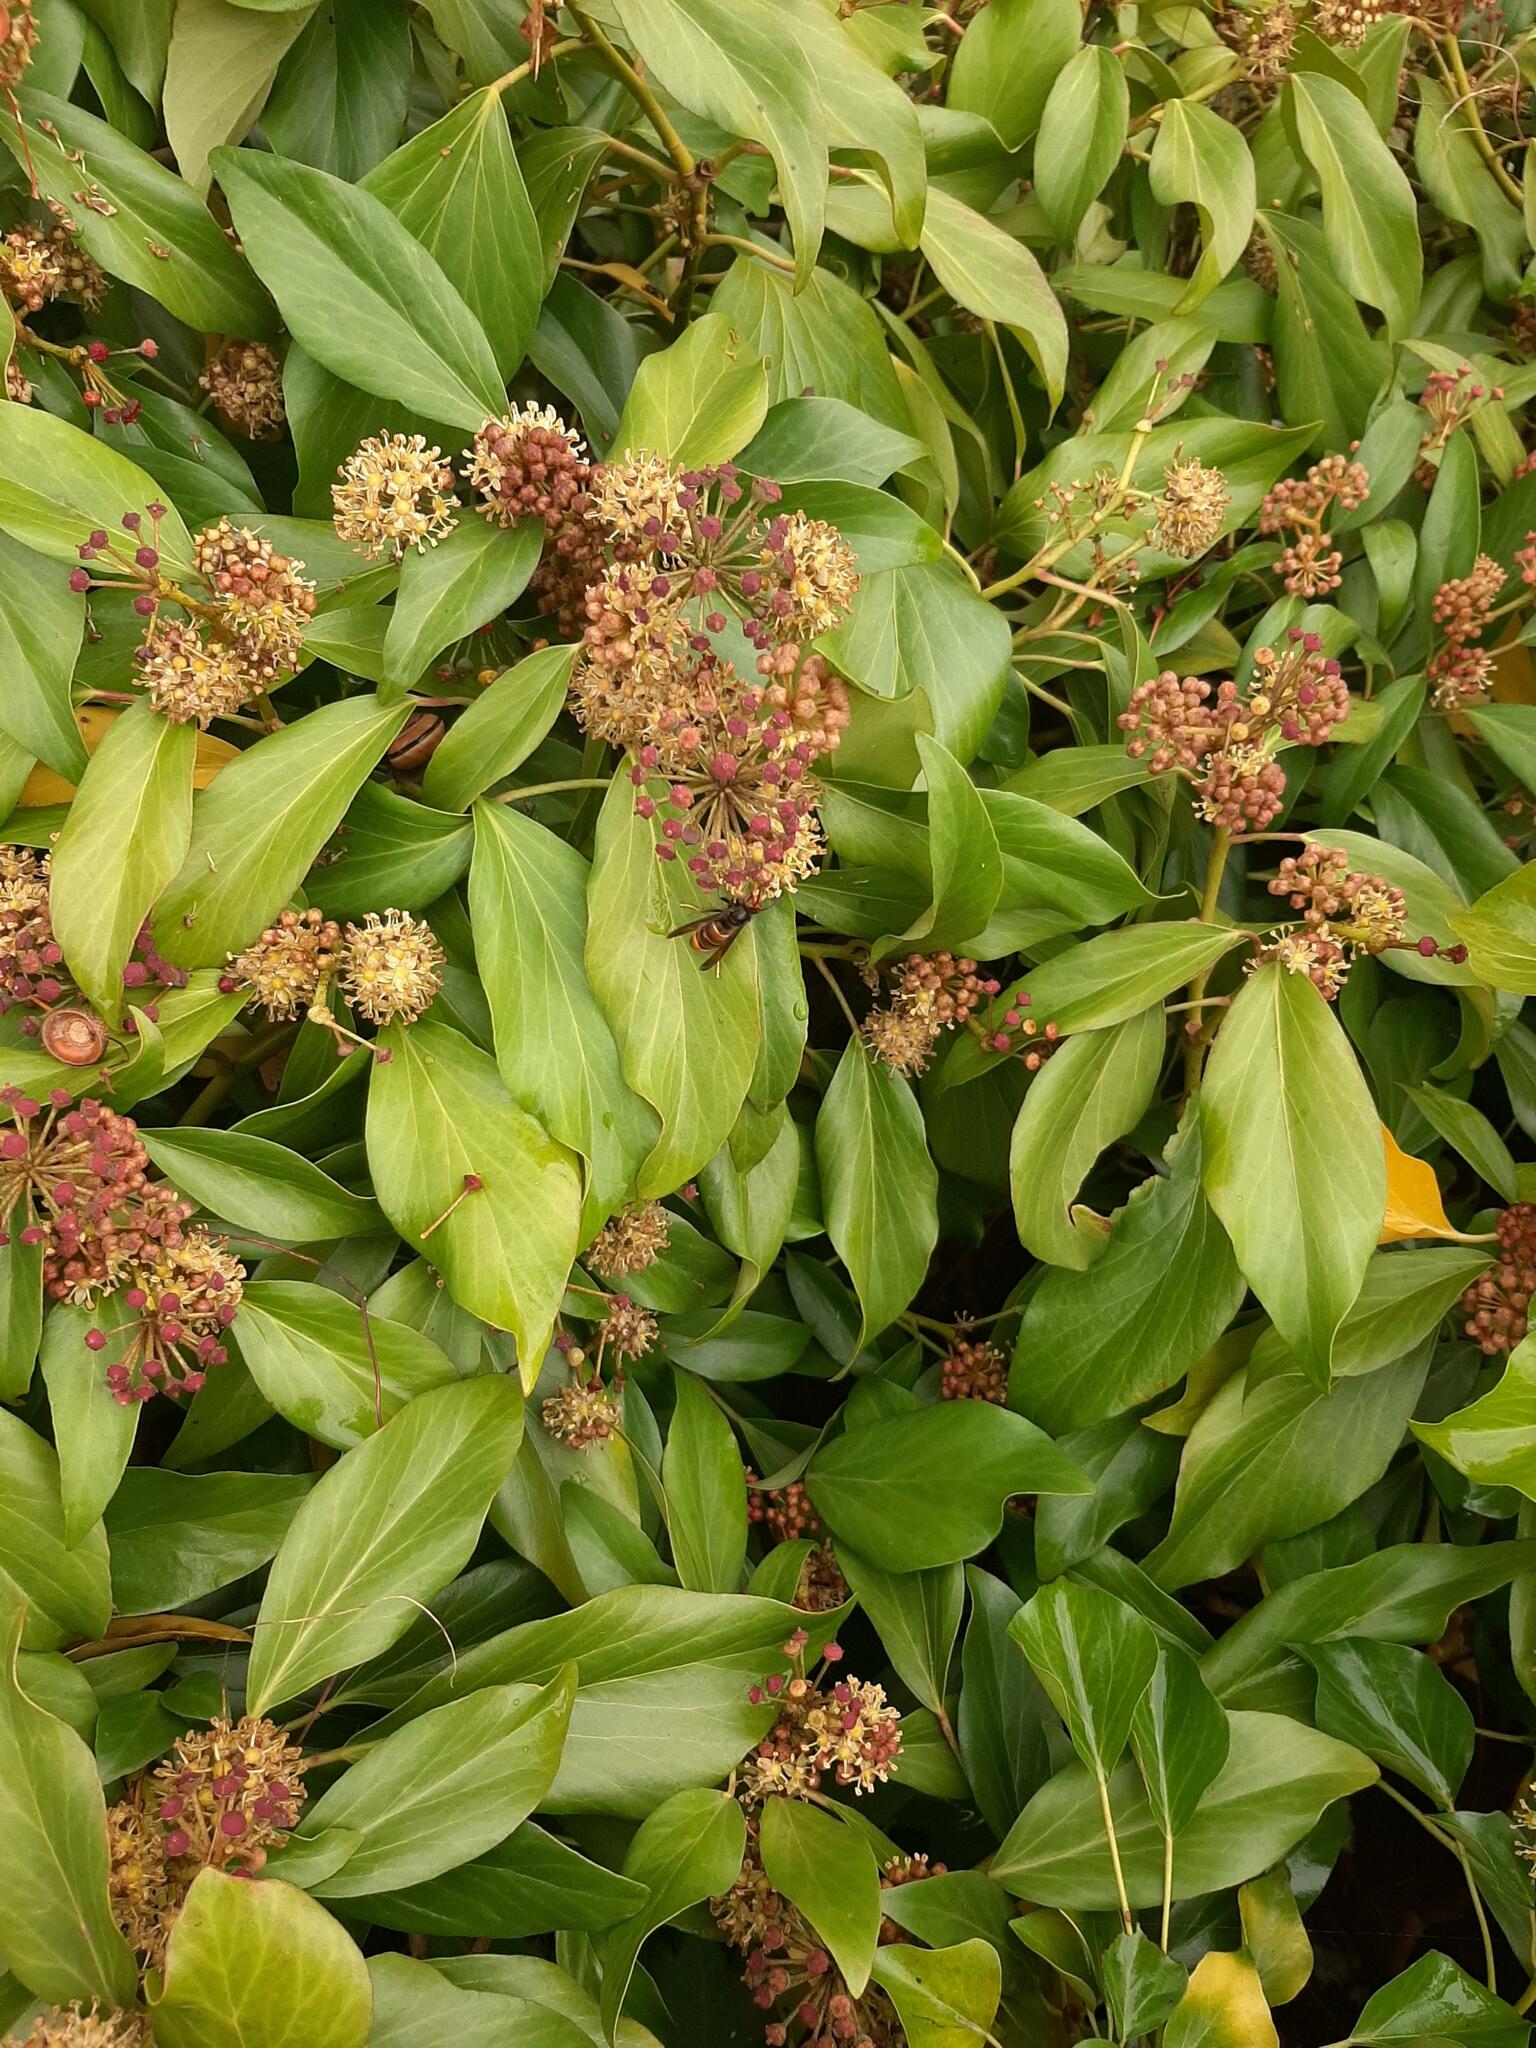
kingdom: Animalia
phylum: Arthropoda
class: Insecta
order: Hymenoptera
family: Vespidae
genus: Vespa
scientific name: Vespa velutina
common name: Asian hornet
